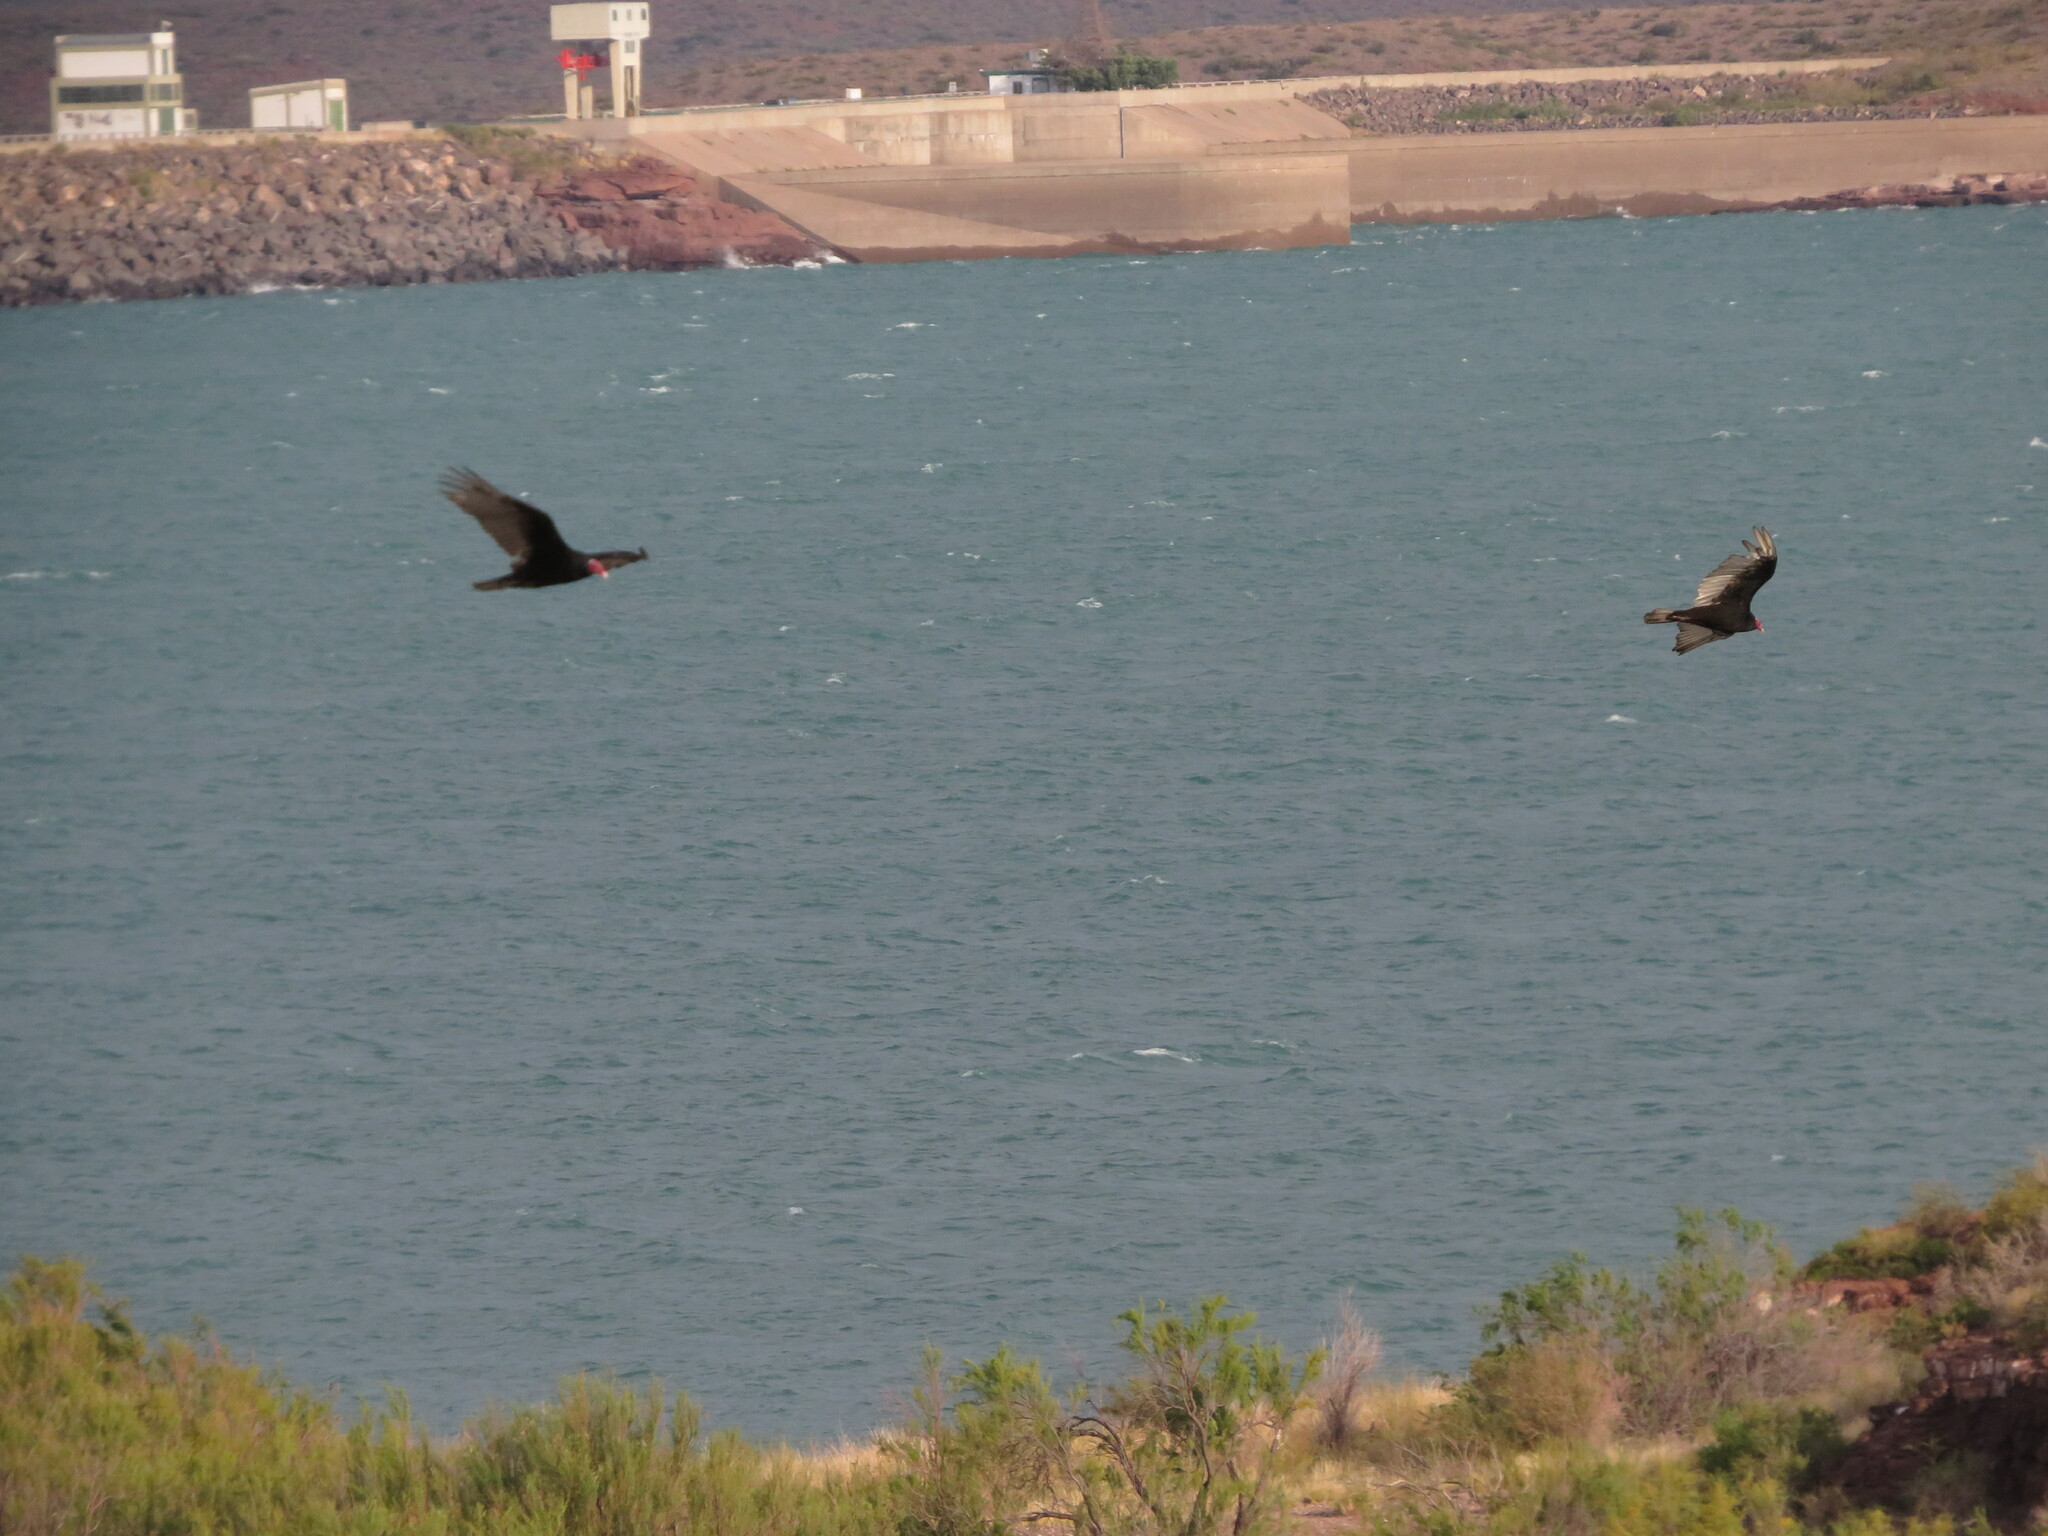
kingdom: Animalia
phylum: Chordata
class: Aves
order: Accipitriformes
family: Cathartidae
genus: Cathartes
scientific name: Cathartes aura
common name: Turkey vulture
